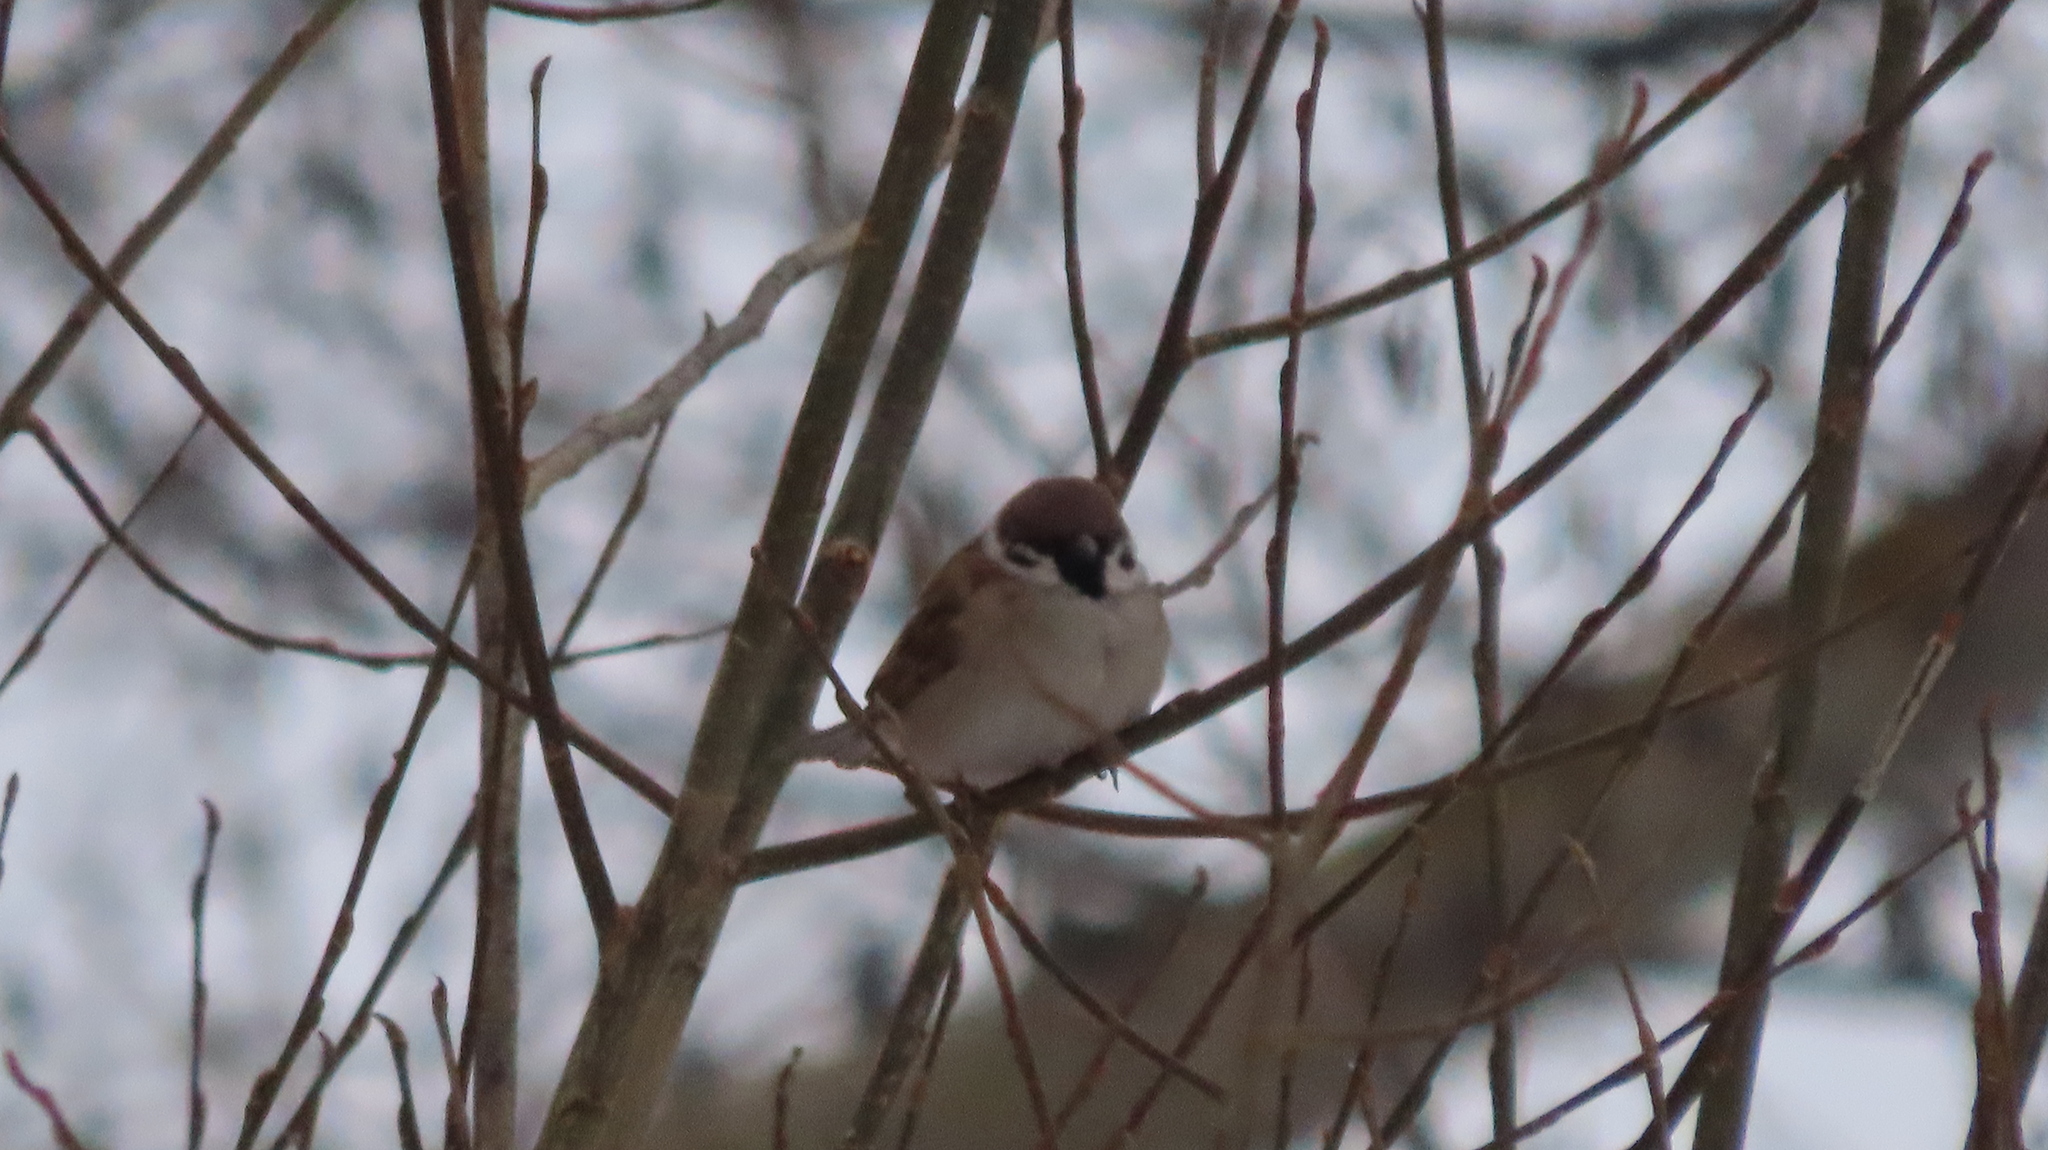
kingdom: Animalia
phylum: Chordata
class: Aves
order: Passeriformes
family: Passeridae
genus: Passer
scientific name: Passer montanus
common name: Eurasian tree sparrow
